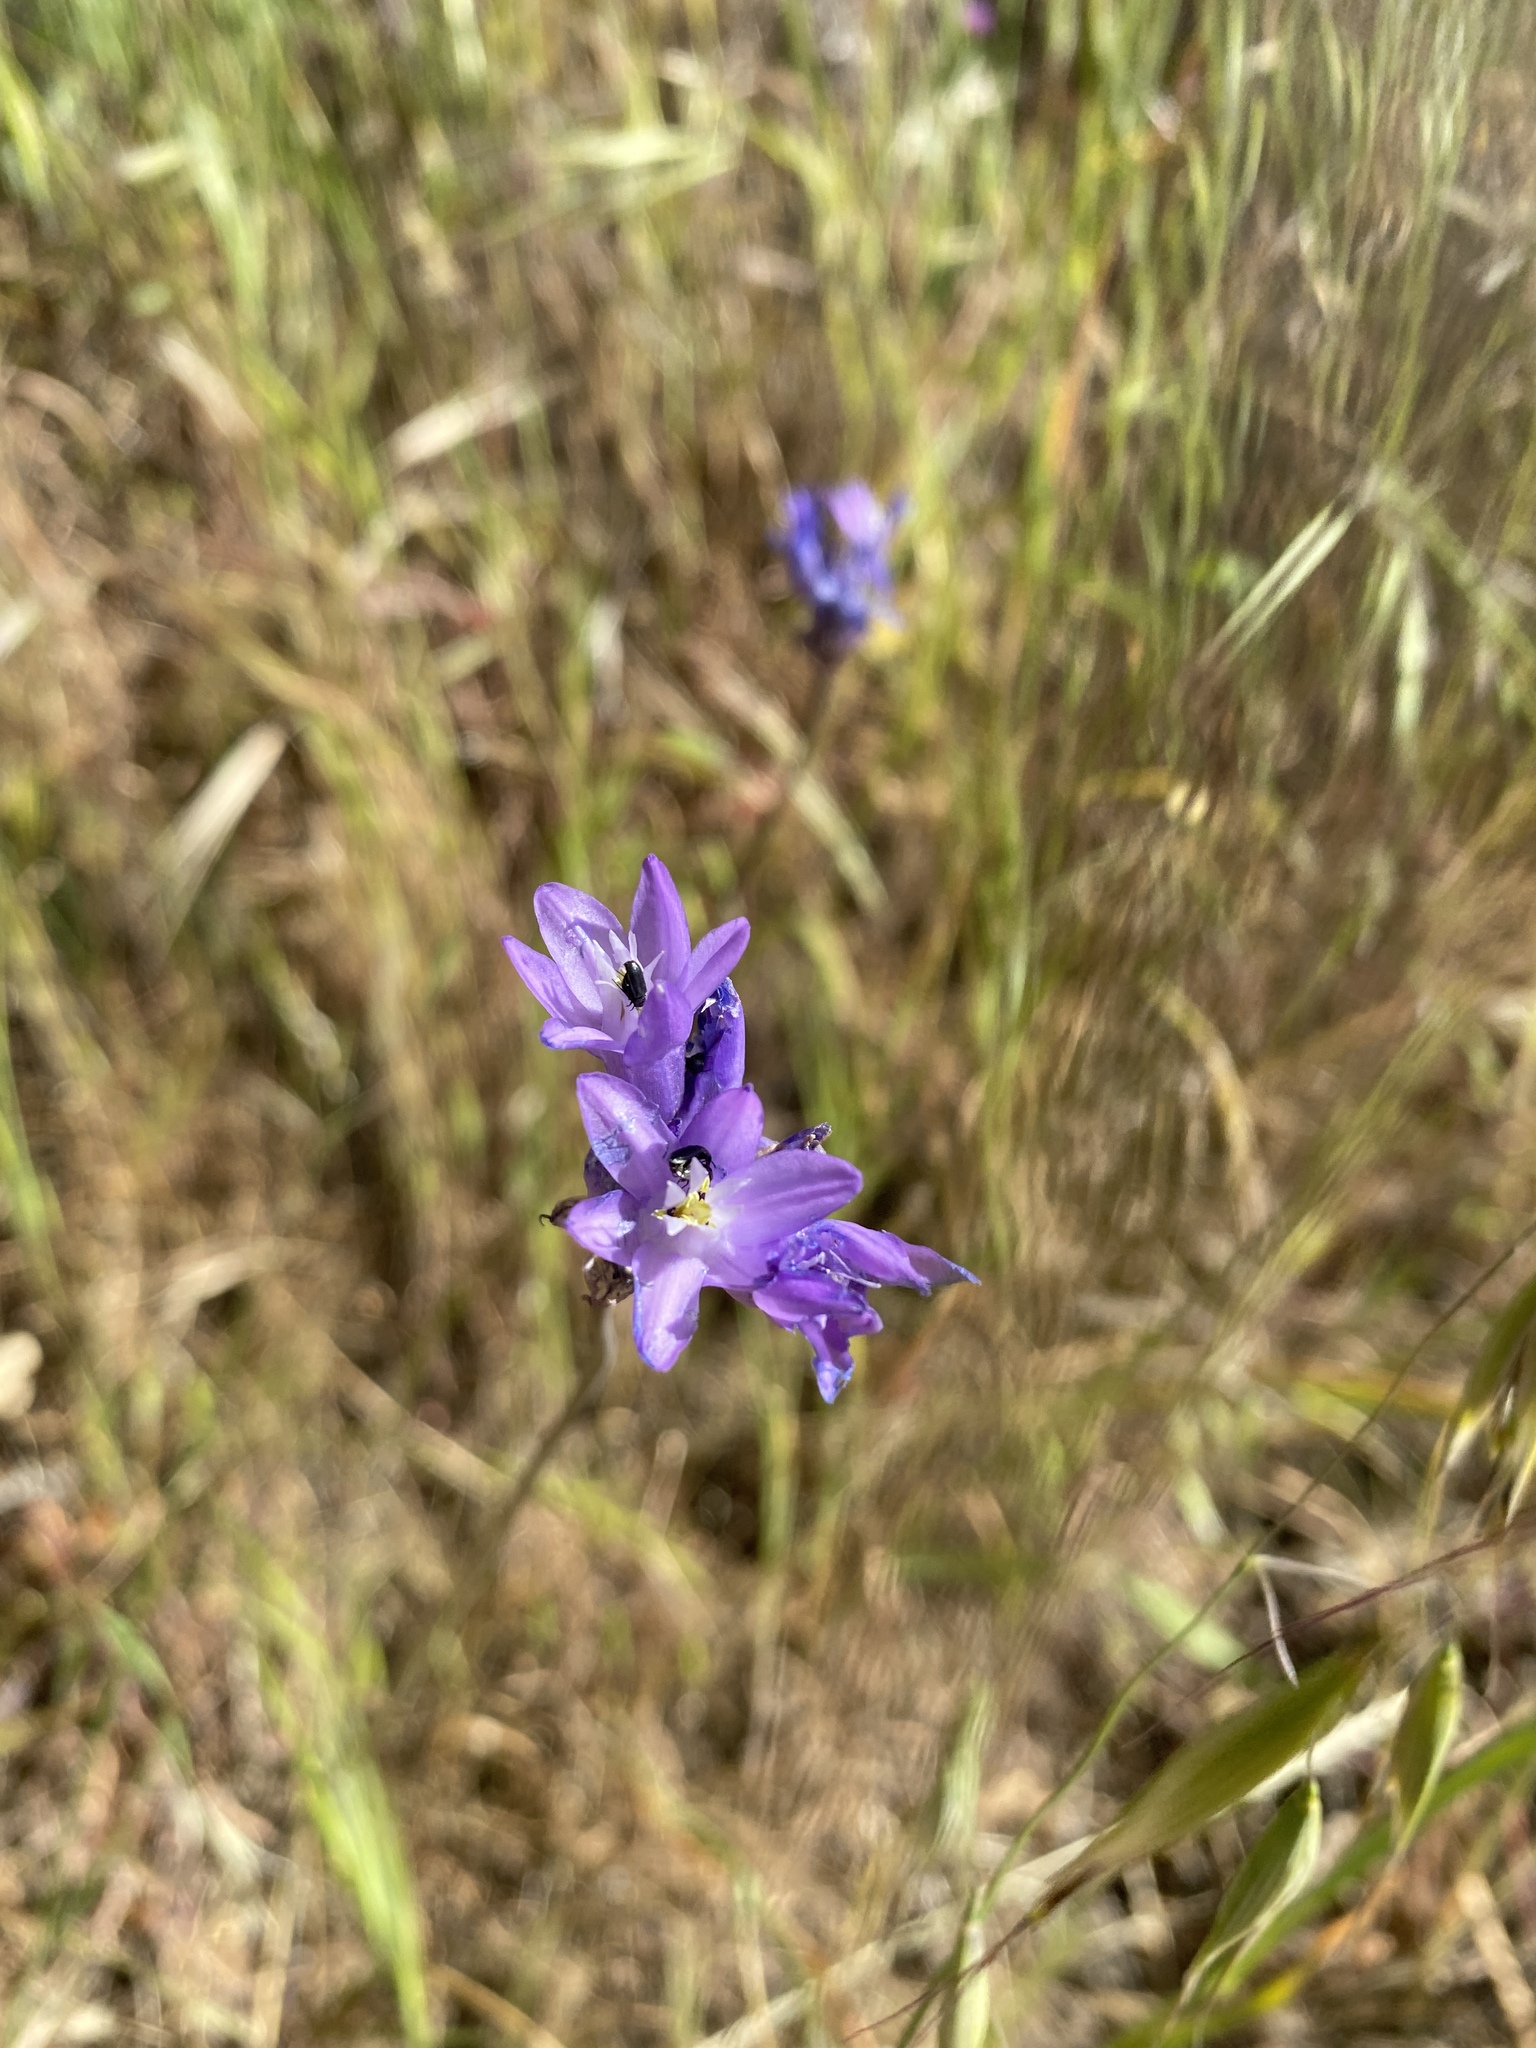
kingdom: Plantae
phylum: Tracheophyta
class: Liliopsida
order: Asparagales
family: Asparagaceae
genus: Dipterostemon
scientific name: Dipterostemon capitatus
